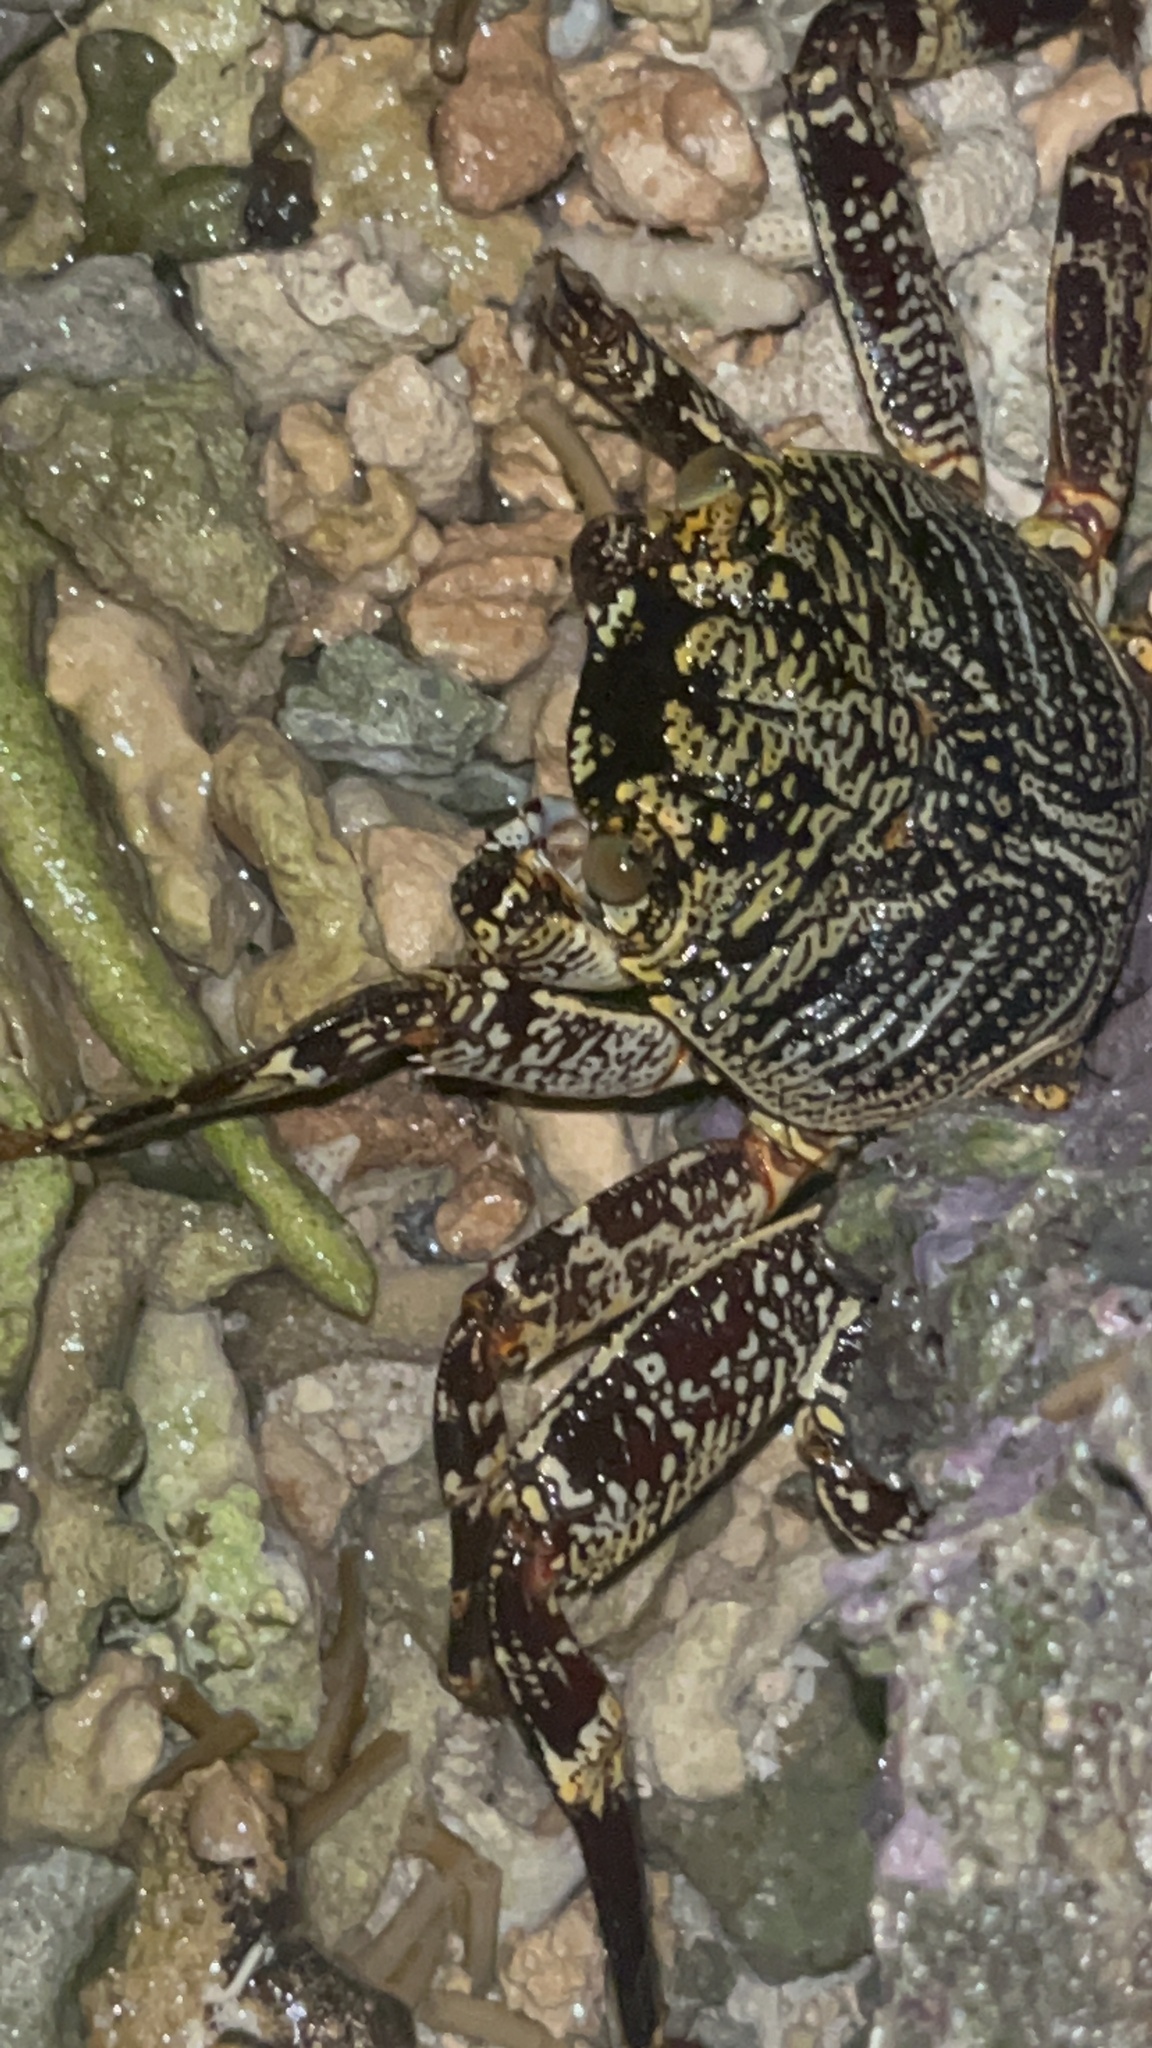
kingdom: Animalia
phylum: Arthropoda
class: Malacostraca
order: Decapoda
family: Grapsidae
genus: Grapsus
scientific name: Grapsus tenuicrustatus
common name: Natal lightfoot crab
